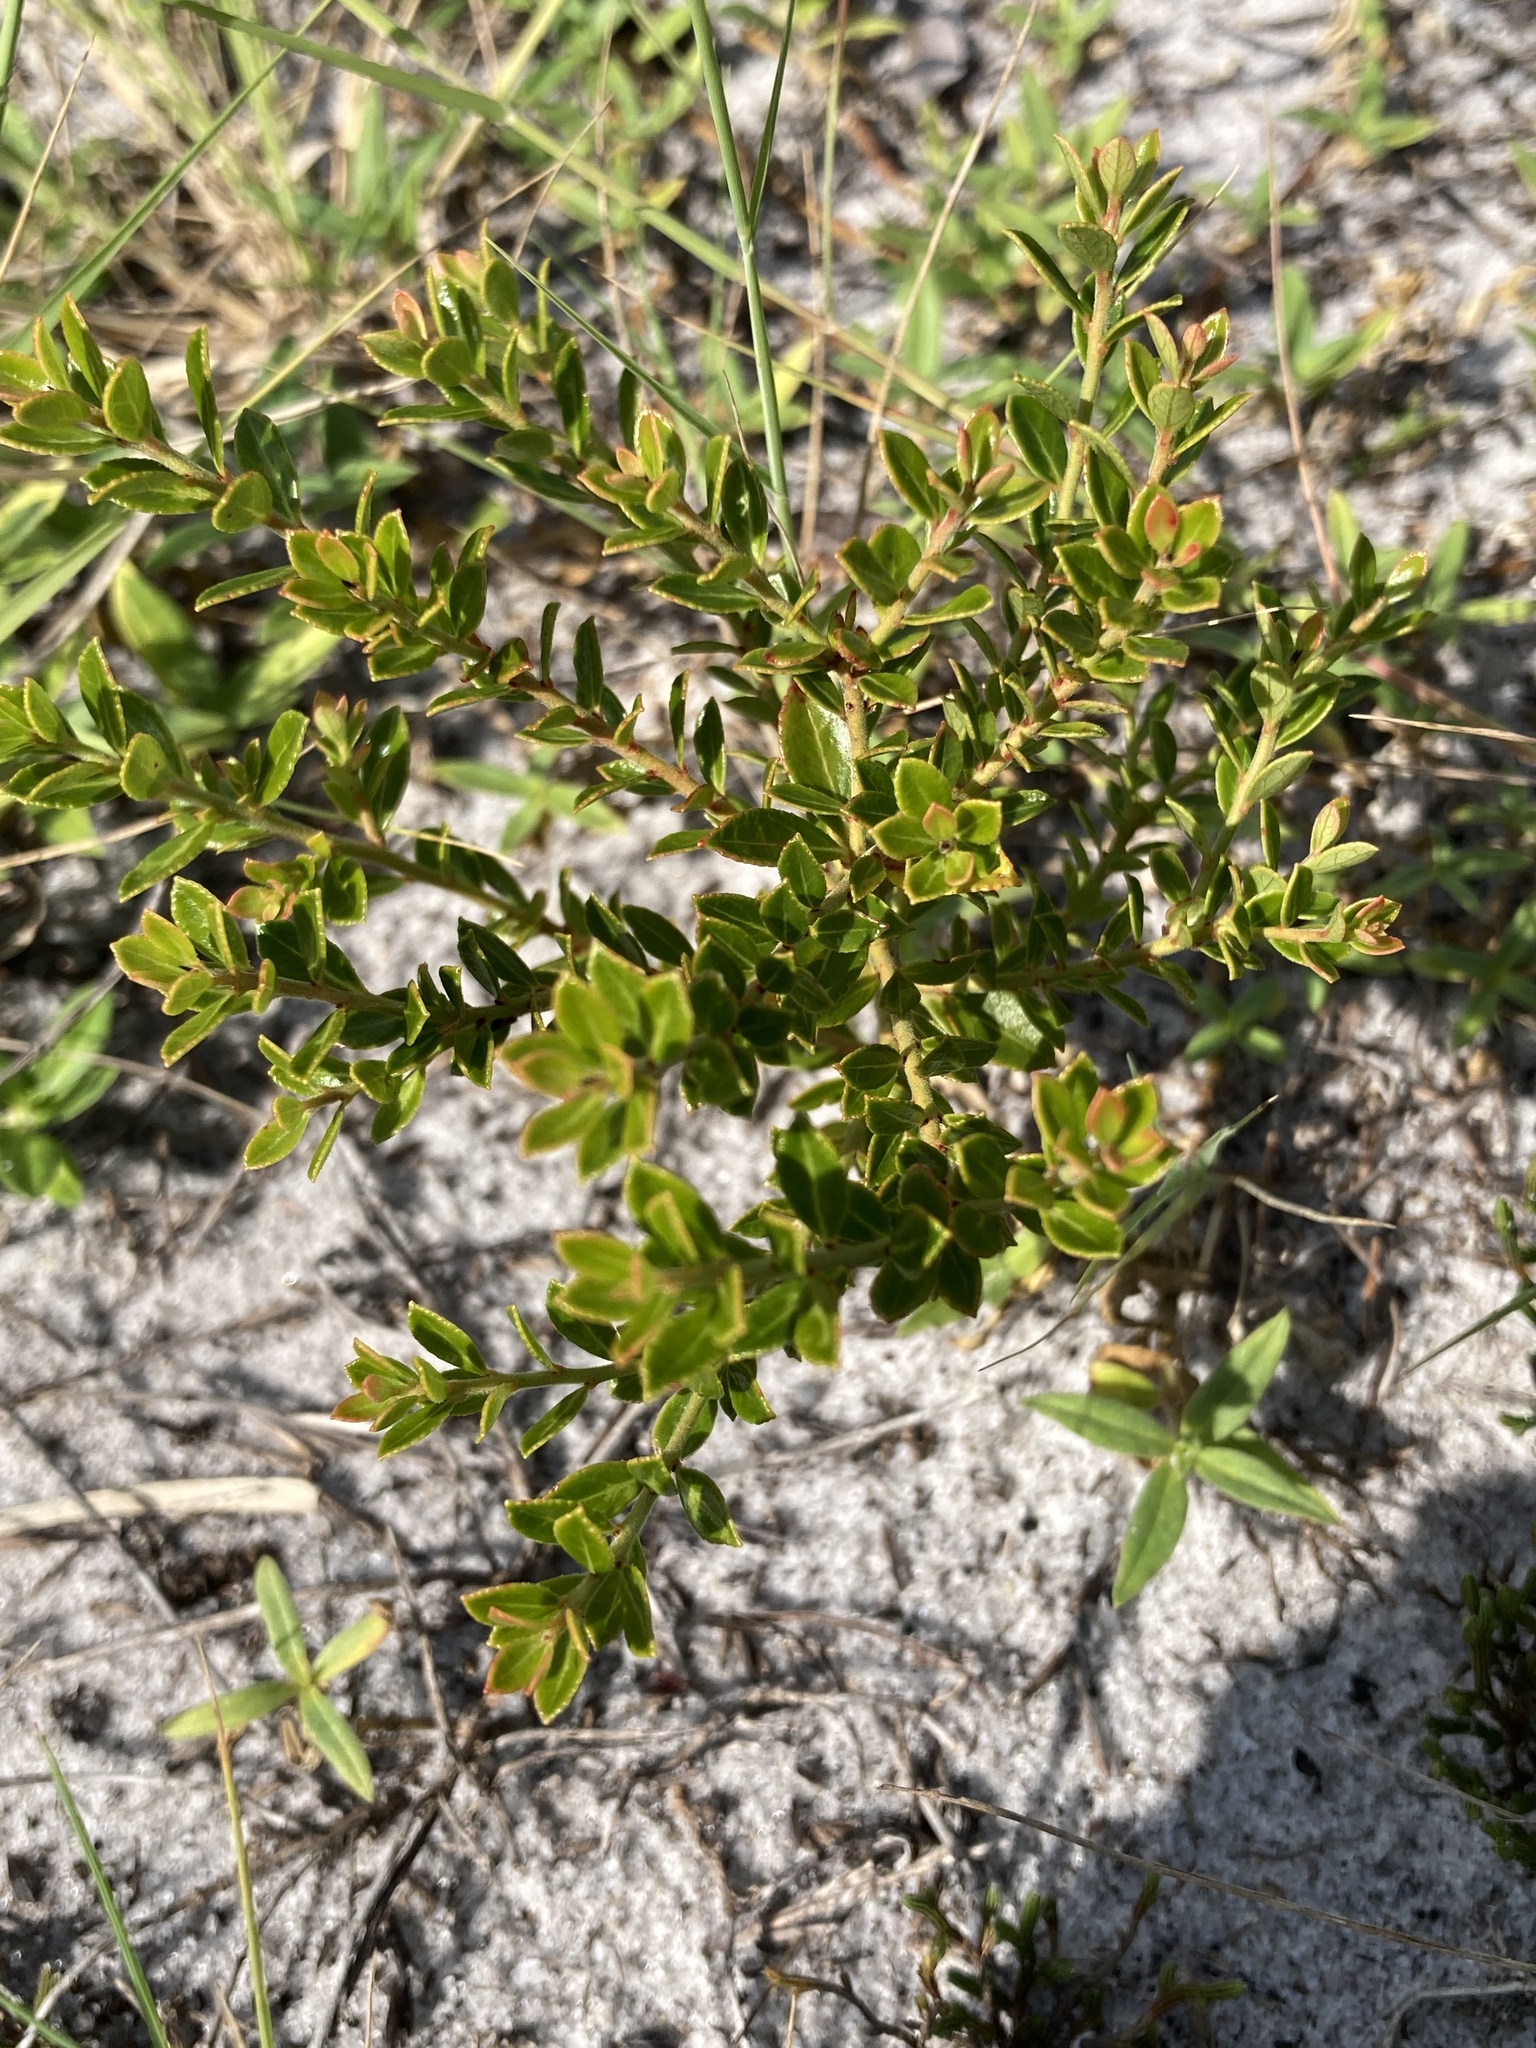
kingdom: Plantae
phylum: Tracheophyta
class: Magnoliopsida
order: Ericales
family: Ericaceae
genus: Vaccinium
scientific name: Vaccinium myrsinites
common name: Evergreen blueberry
